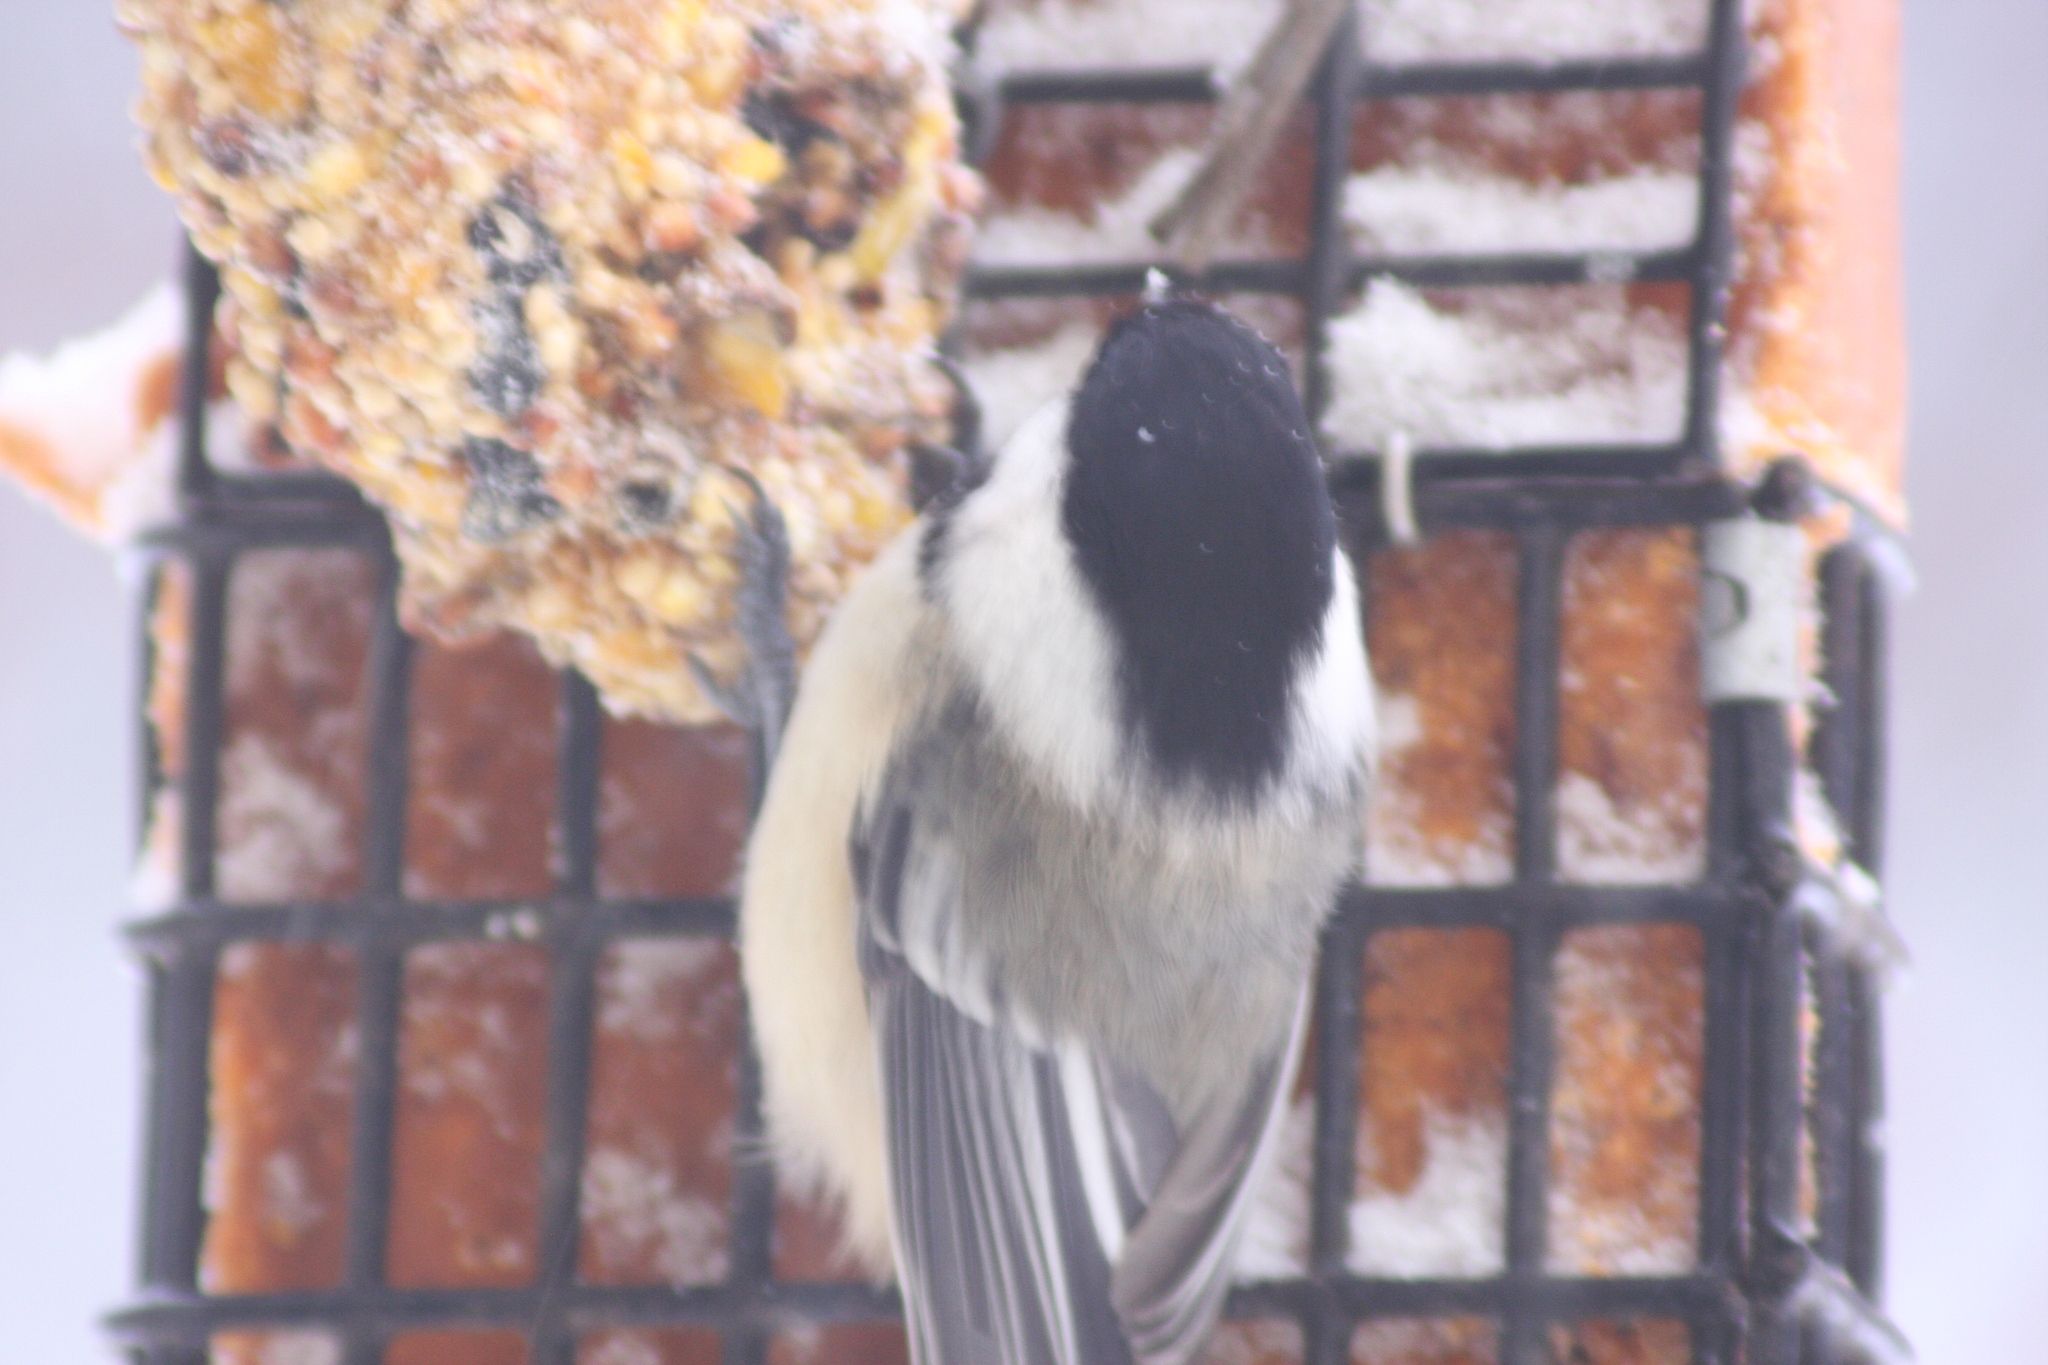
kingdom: Animalia
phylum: Chordata
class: Aves
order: Passeriformes
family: Paridae
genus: Poecile
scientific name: Poecile atricapillus
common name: Black-capped chickadee
